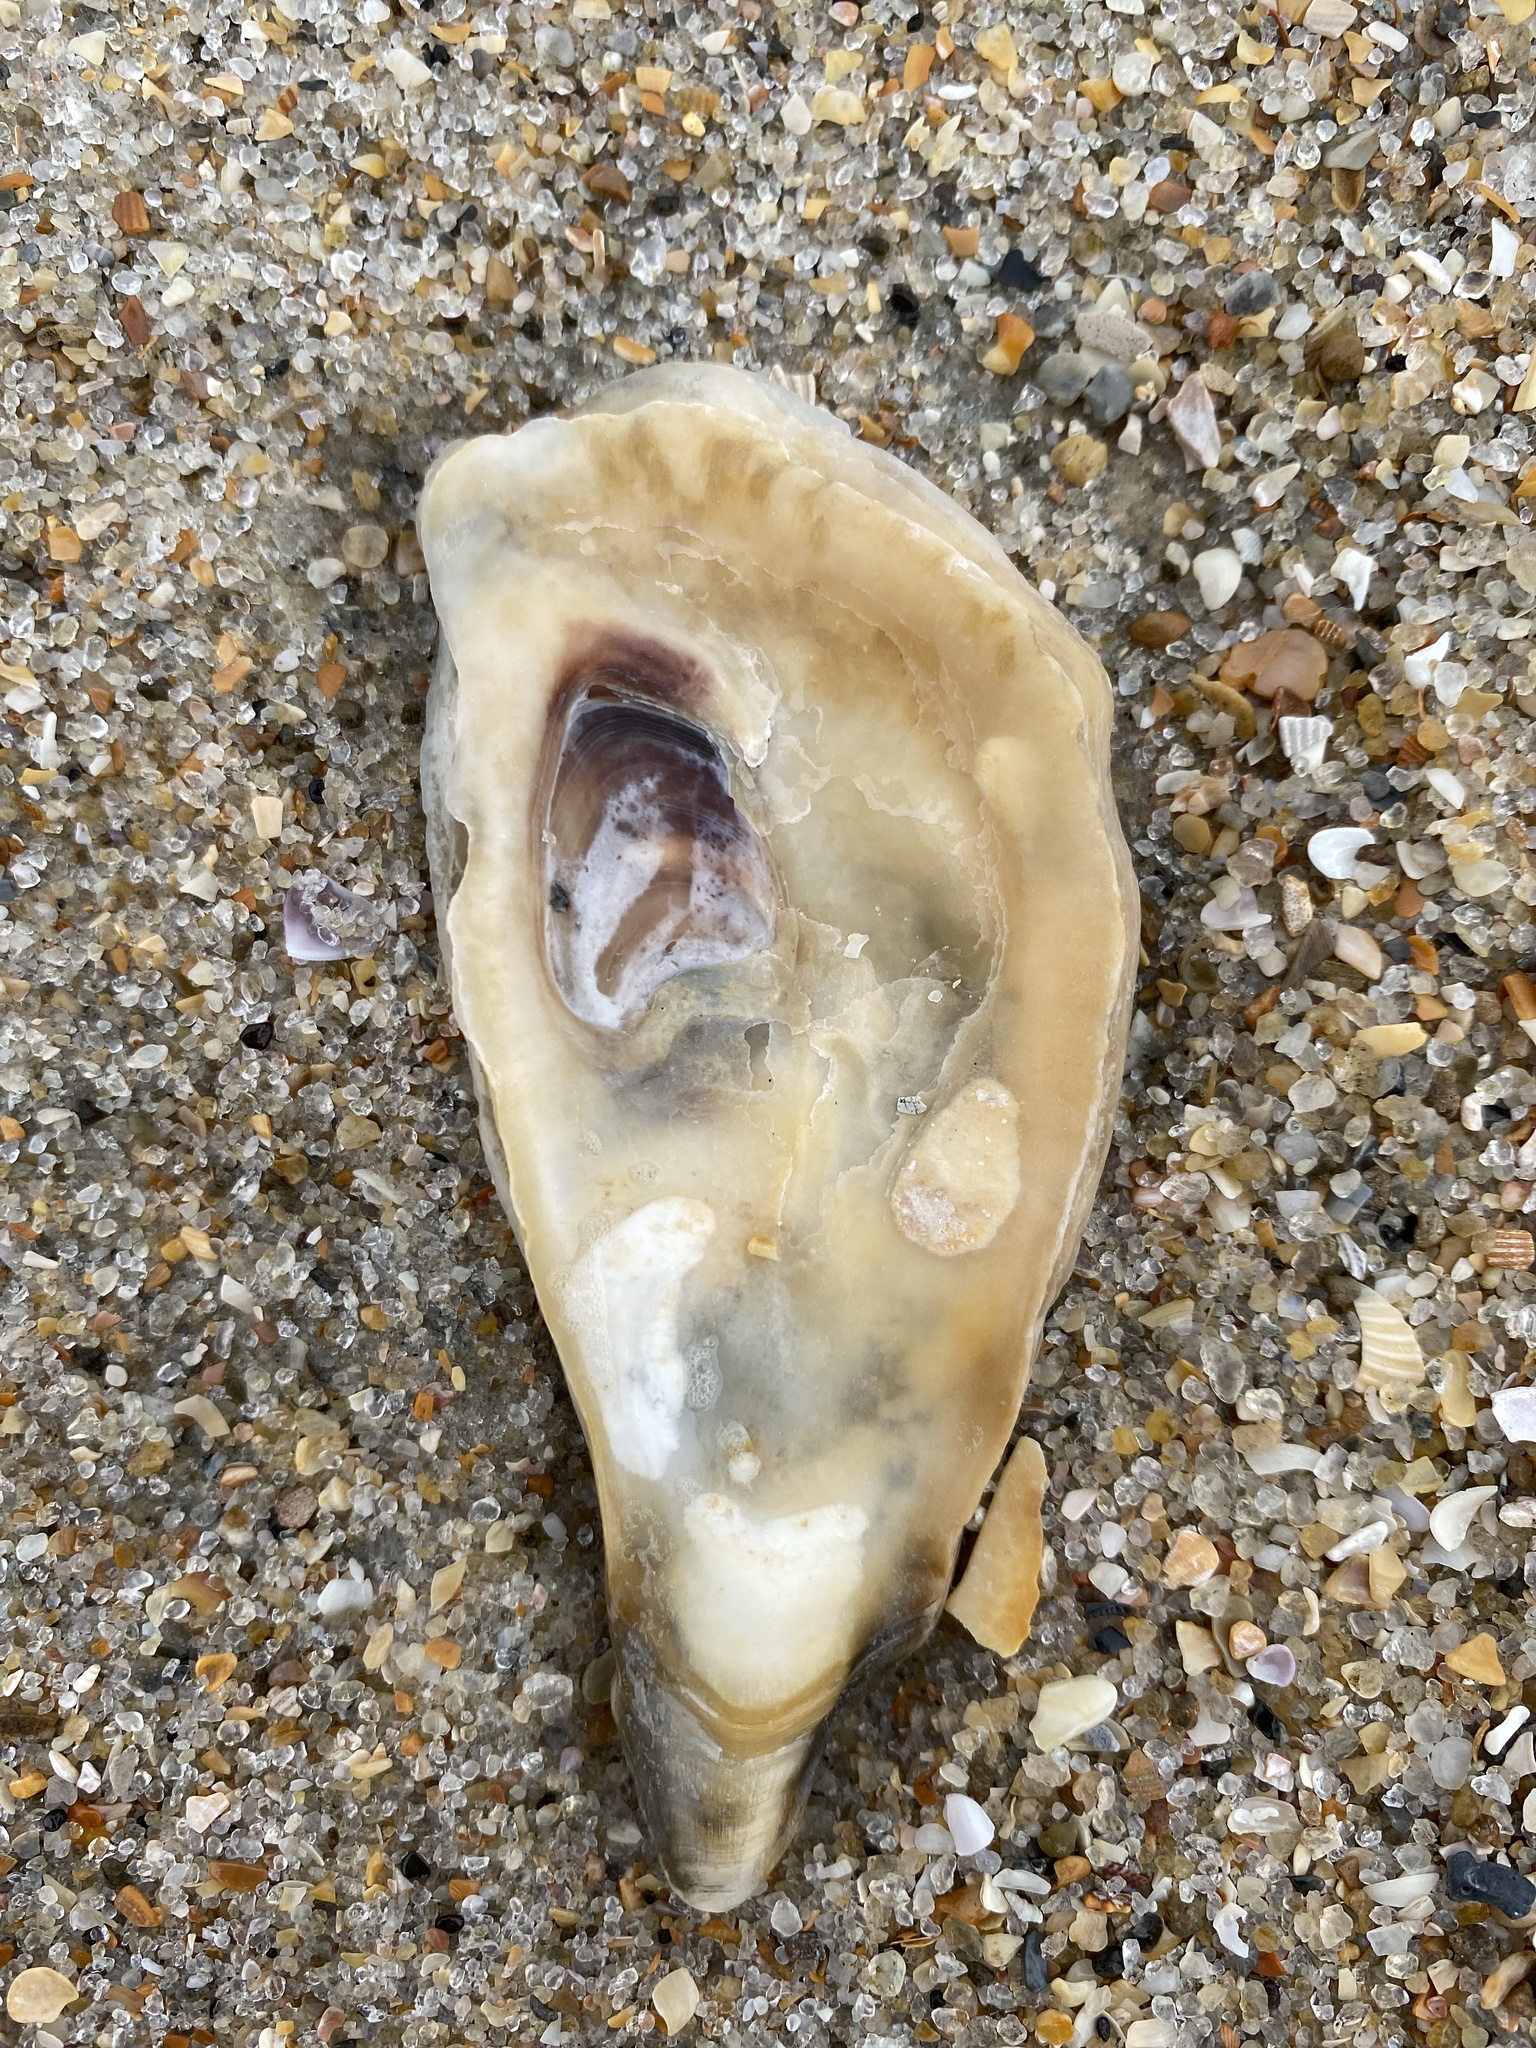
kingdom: Animalia
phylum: Mollusca
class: Bivalvia
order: Ostreida
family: Ostreidae
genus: Crassostrea
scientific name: Crassostrea virginica
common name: American oyster
